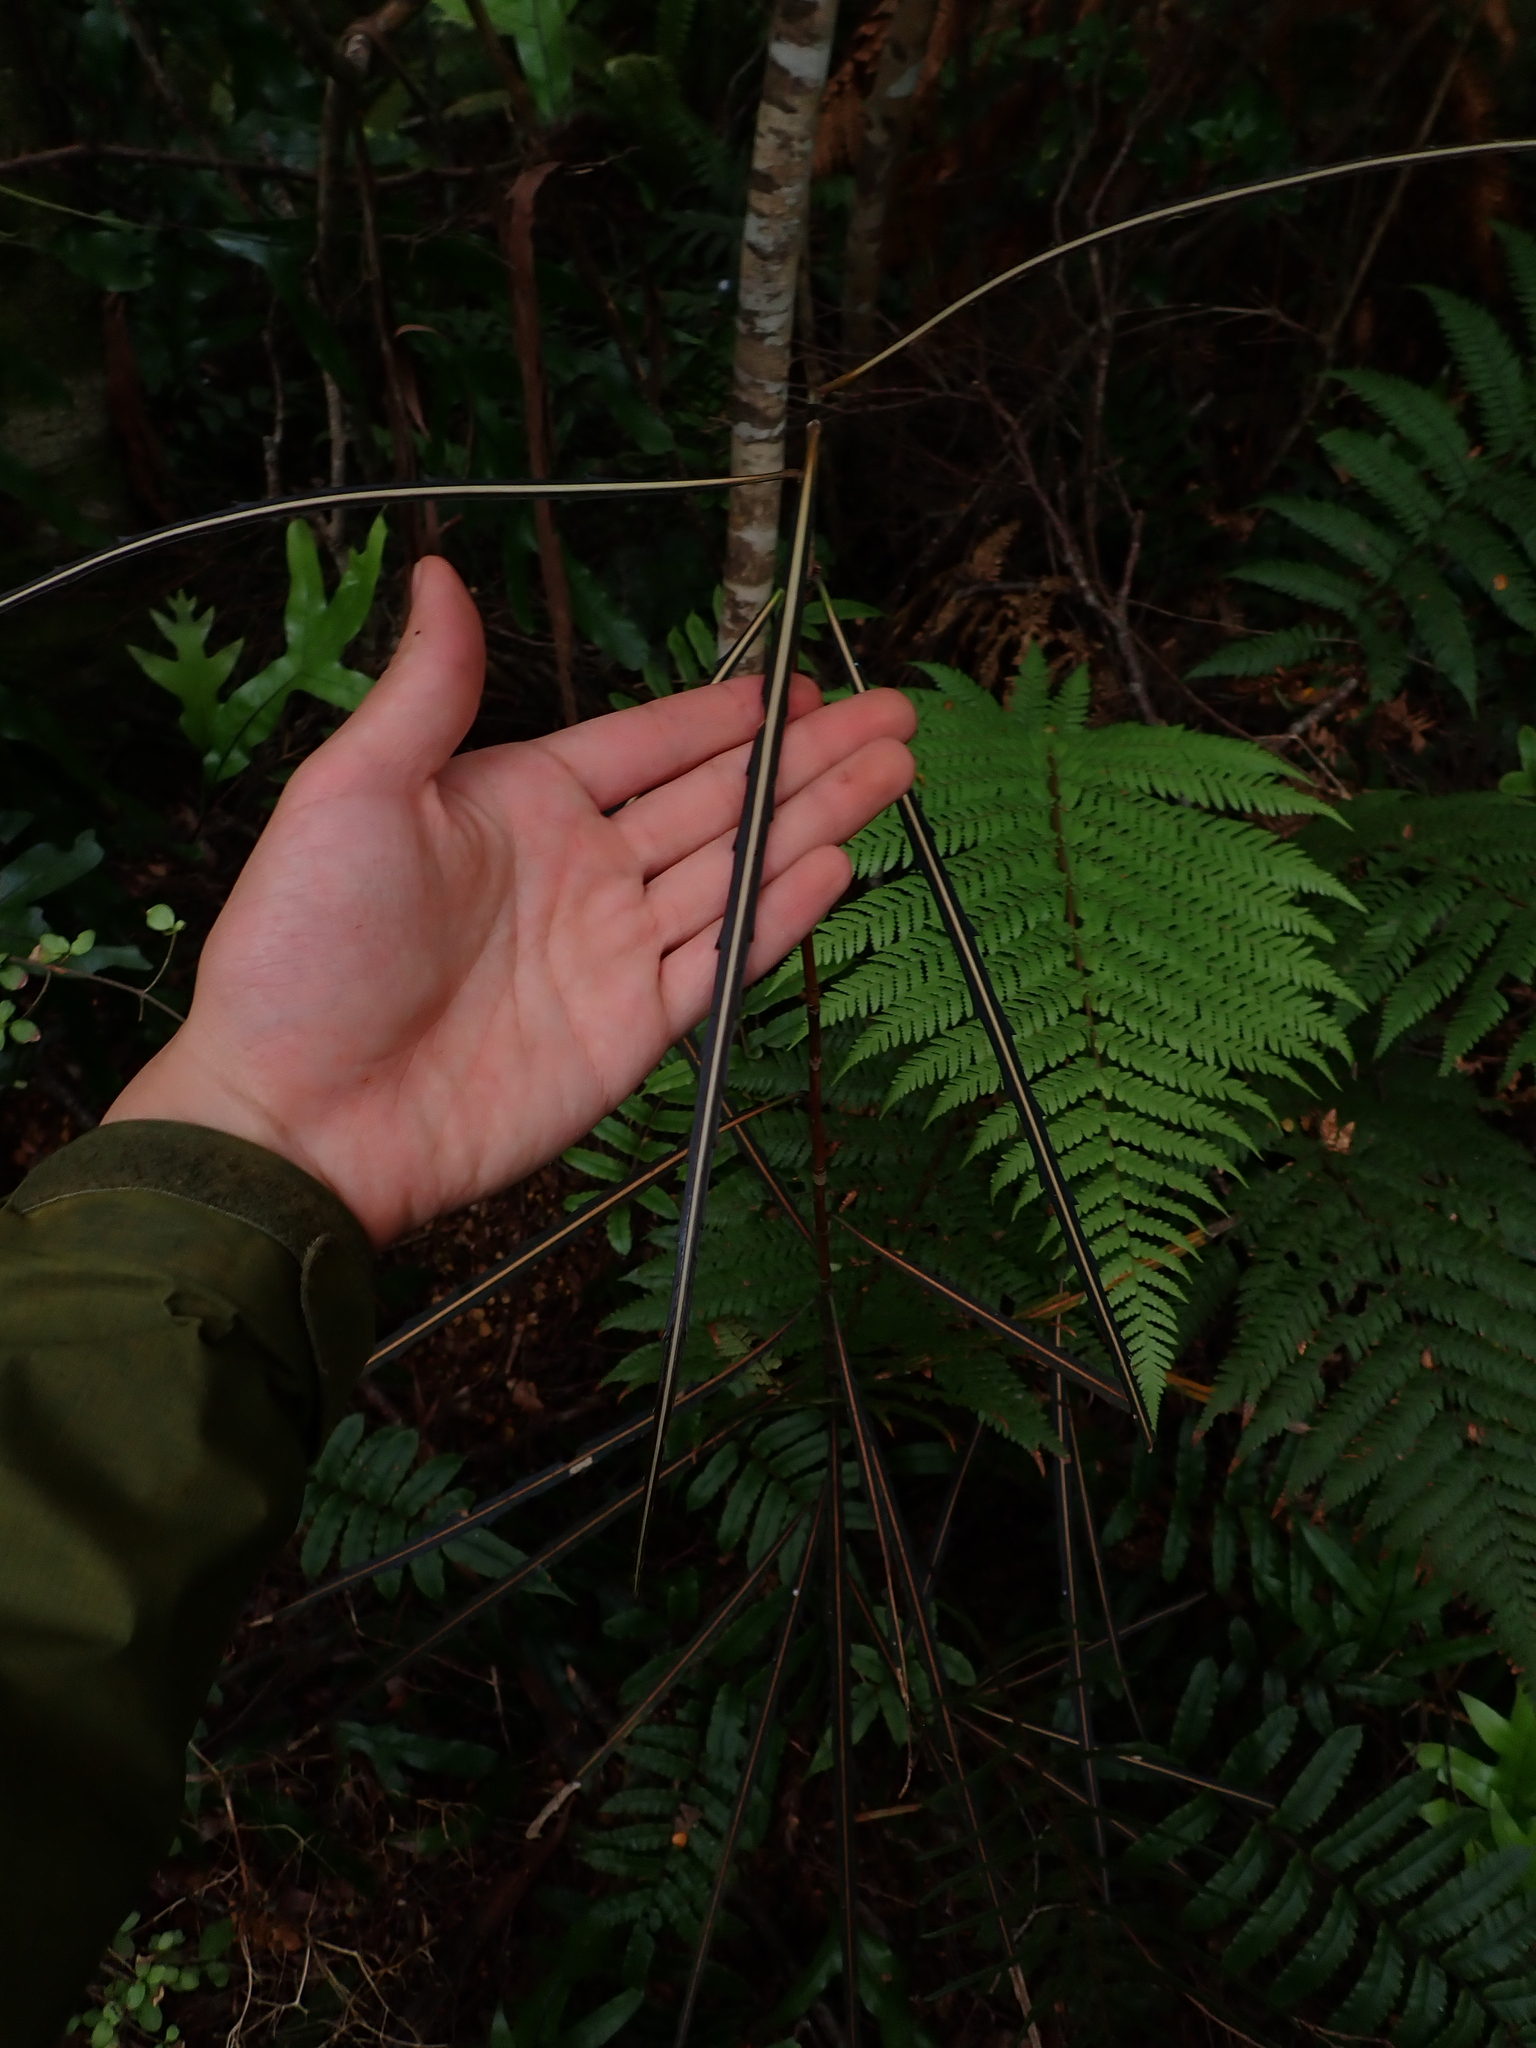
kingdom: Plantae
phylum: Tracheophyta
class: Magnoliopsida
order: Apiales
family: Araliaceae
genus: Pseudopanax
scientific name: Pseudopanax crassifolius
